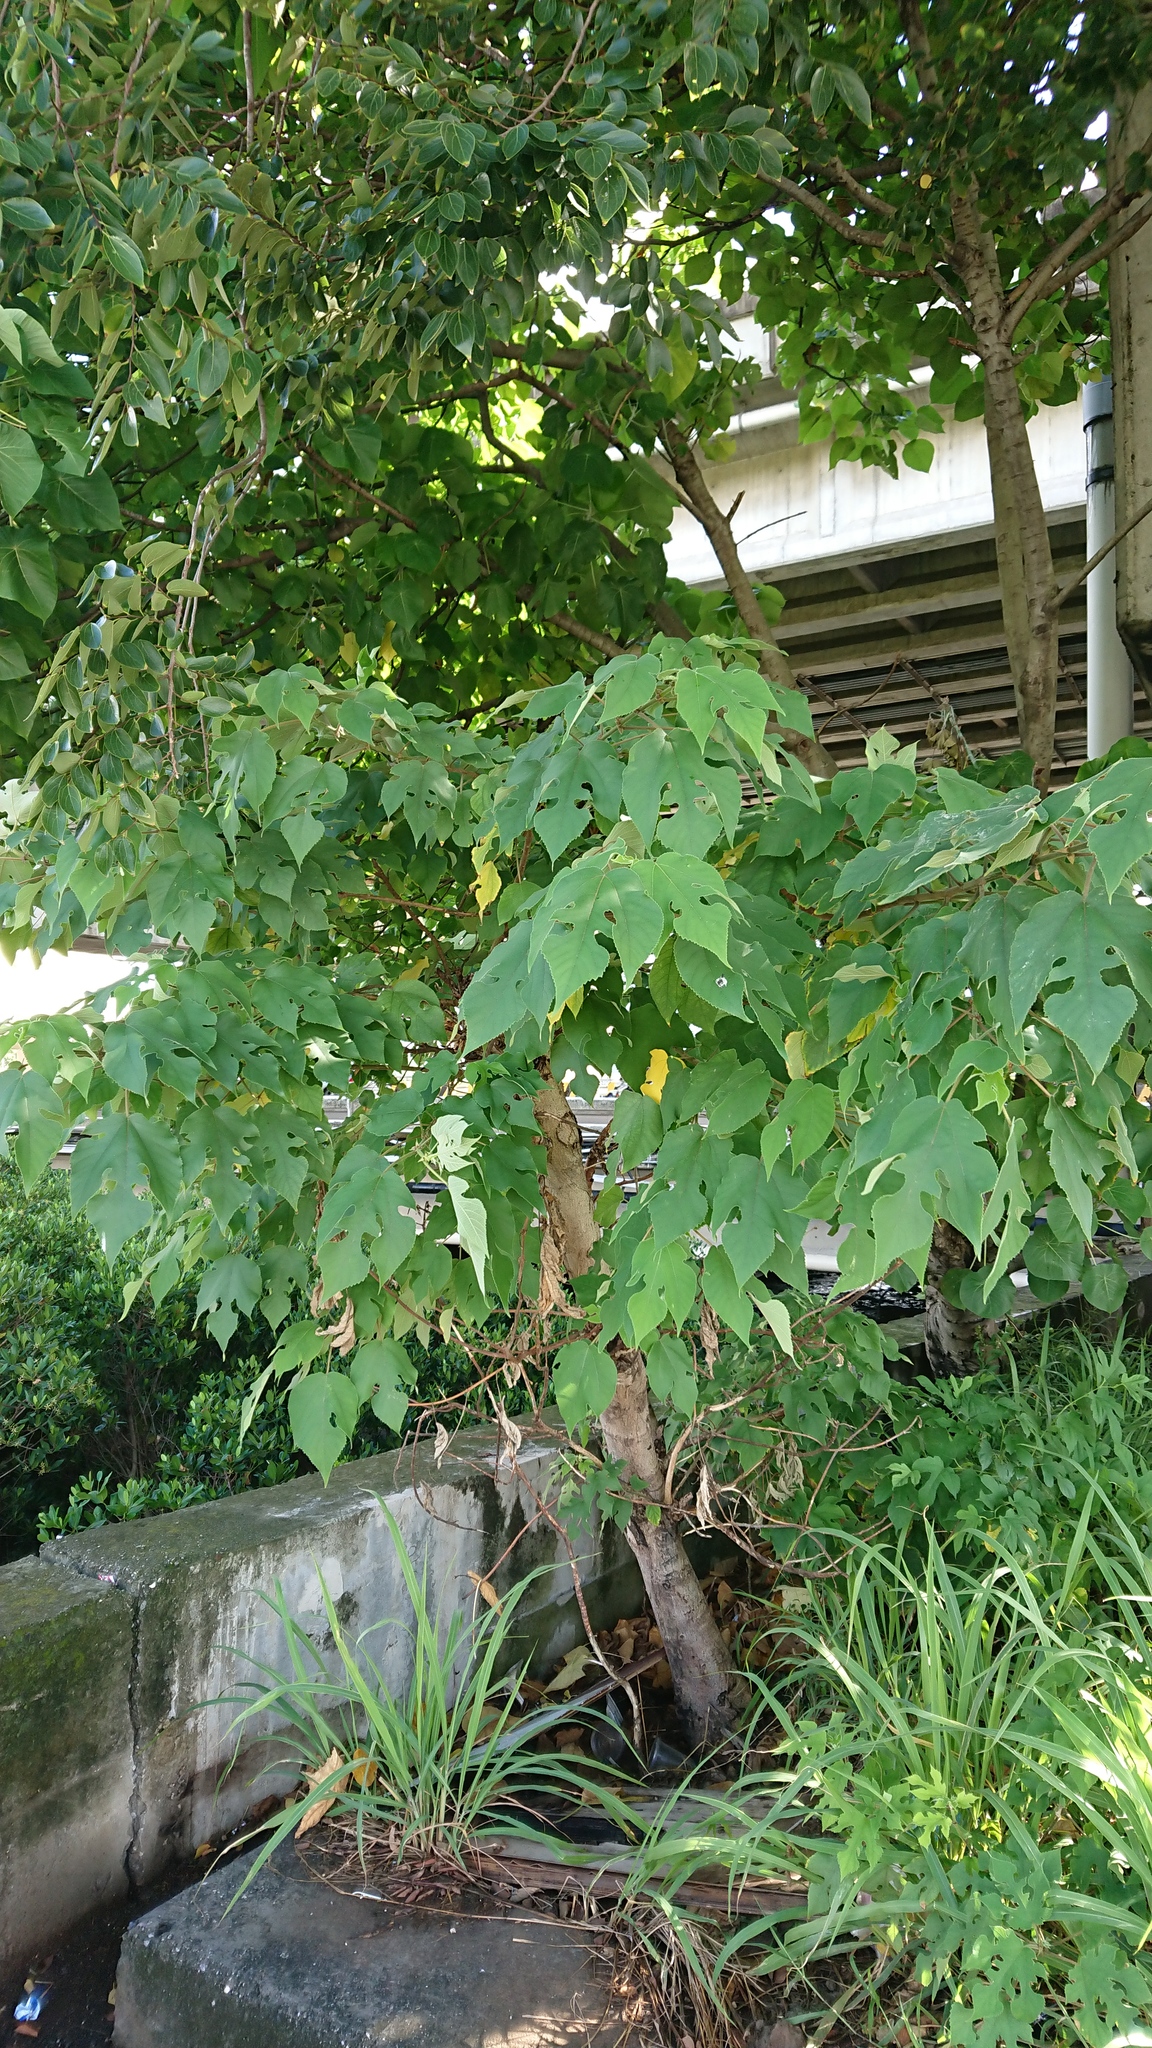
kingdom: Plantae
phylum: Tracheophyta
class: Magnoliopsida
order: Rosales
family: Moraceae
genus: Broussonetia
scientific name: Broussonetia papyrifera
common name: Paper mulberry
